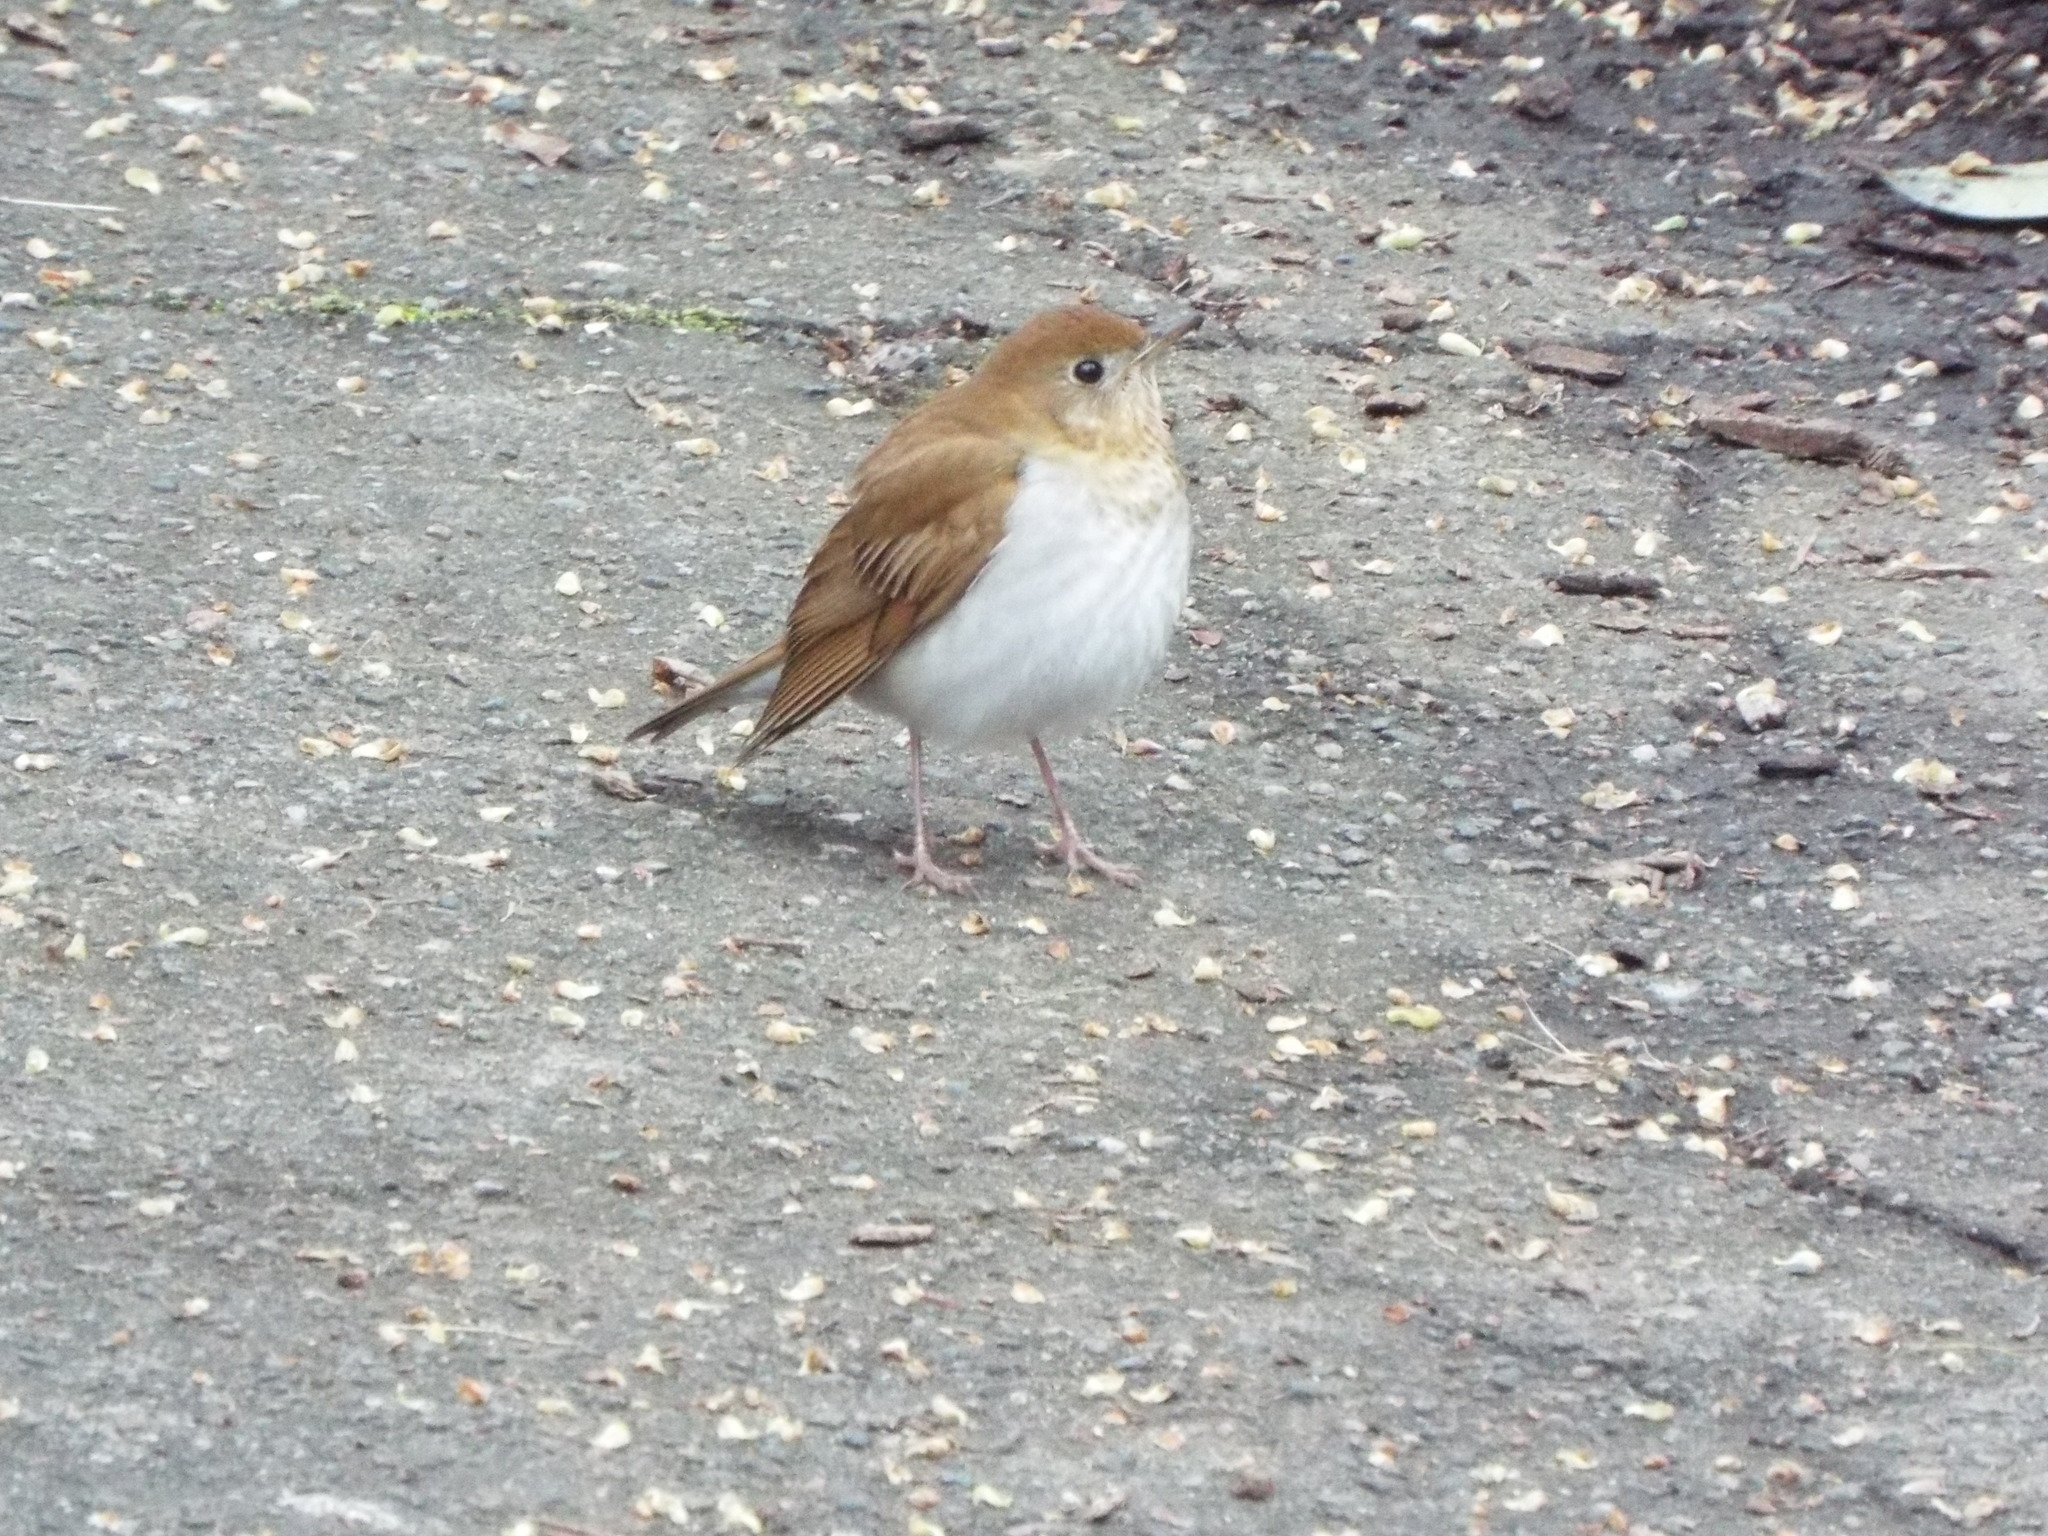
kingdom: Animalia
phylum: Chordata
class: Aves
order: Passeriformes
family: Turdidae
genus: Catharus
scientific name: Catharus fuscescens
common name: Veery
